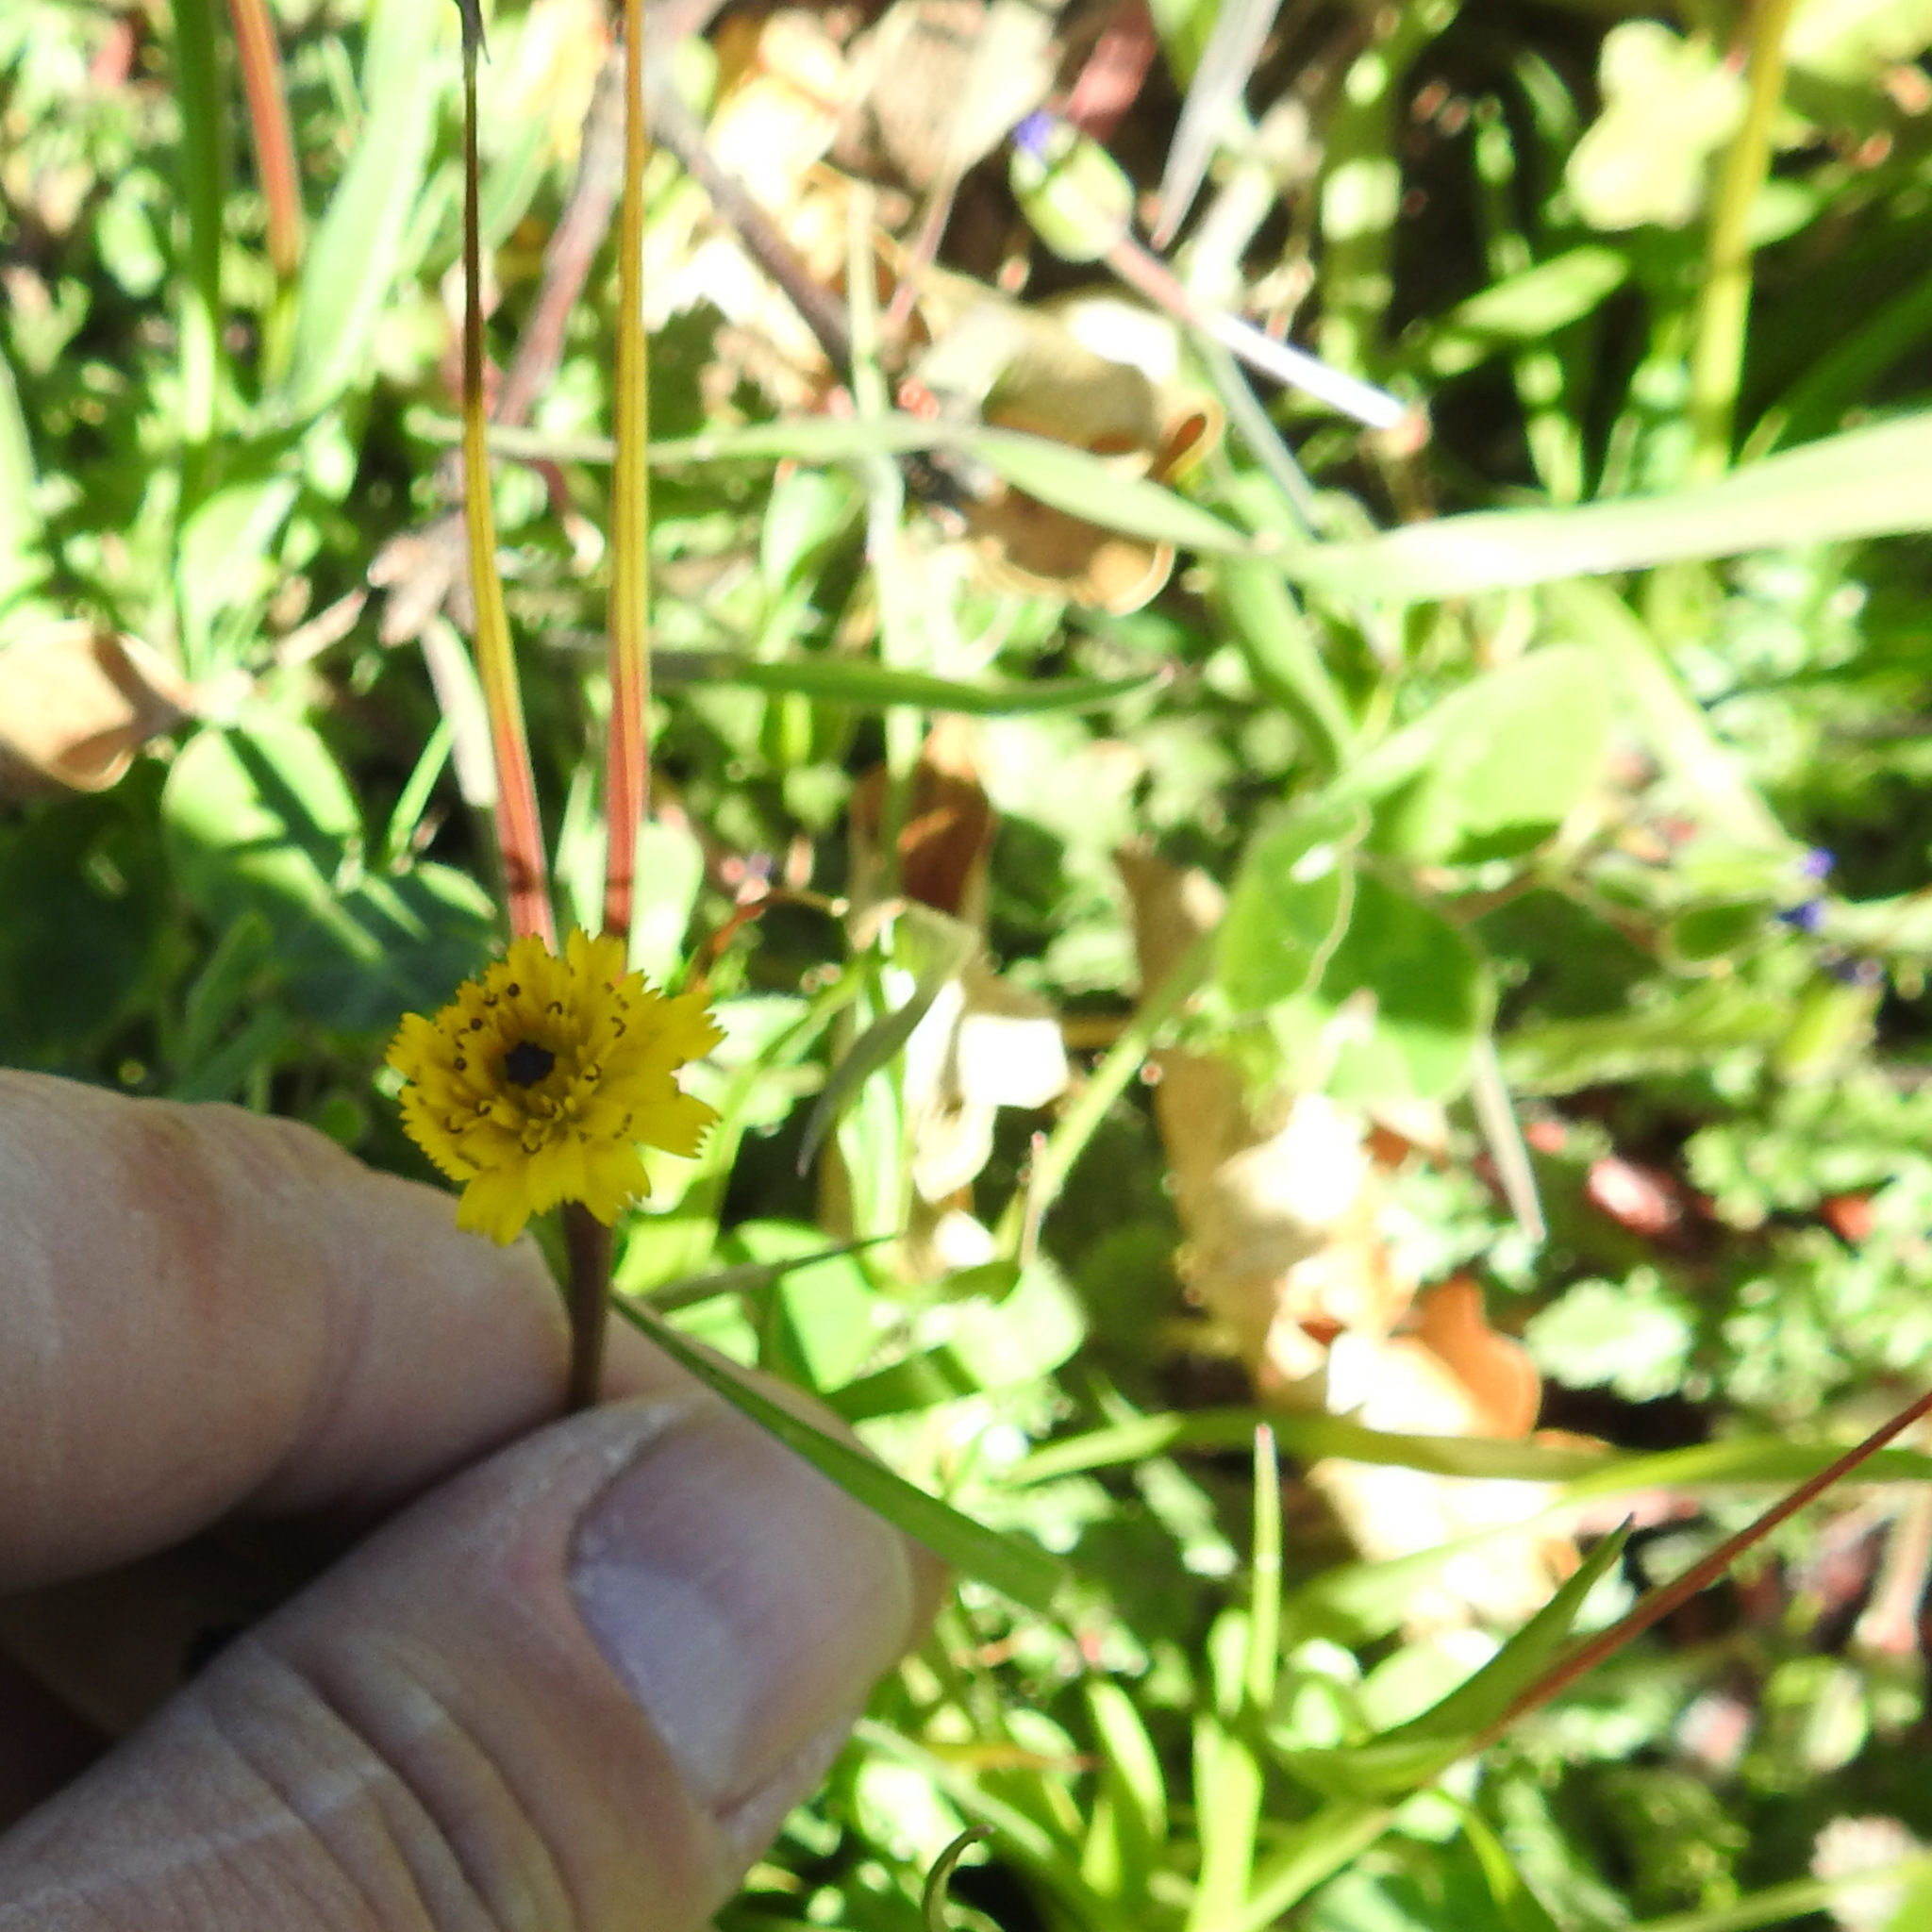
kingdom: Plantae
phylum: Tracheophyta
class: Magnoliopsida
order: Asterales
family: Asteraceae
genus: Hedypnois
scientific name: Hedypnois rhagadioloides
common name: Cretan weed
